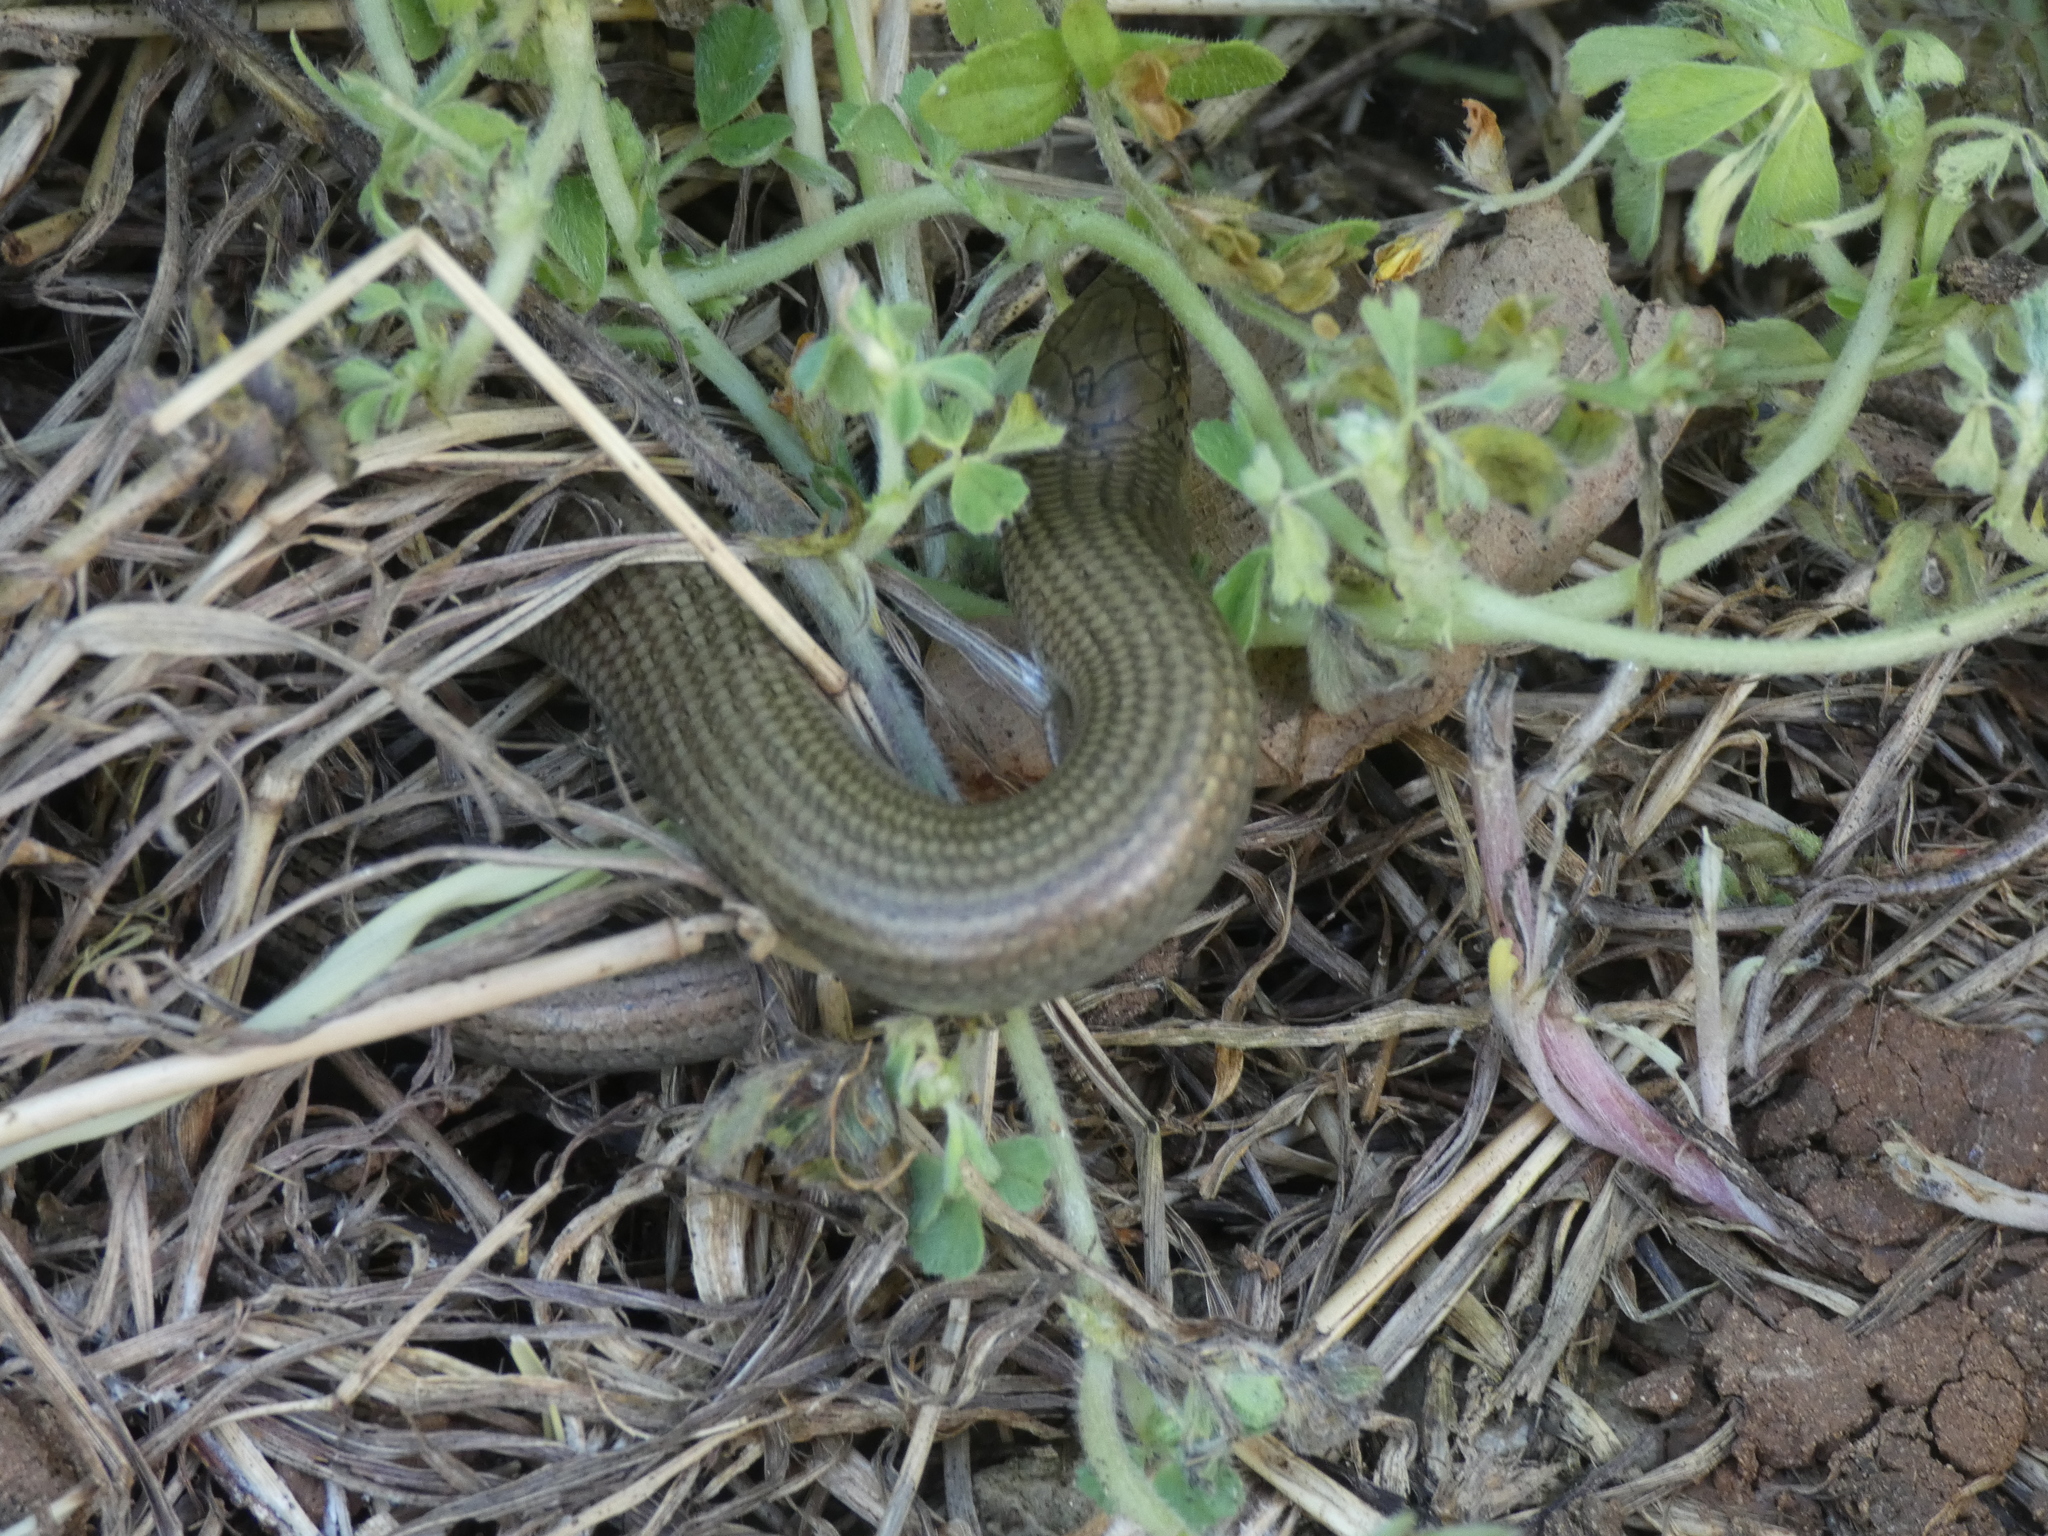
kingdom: Animalia
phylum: Chordata
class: Squamata
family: Scincidae
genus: Chalcides
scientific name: Chalcides striatus
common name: Western (or iberian) three-toed skink
